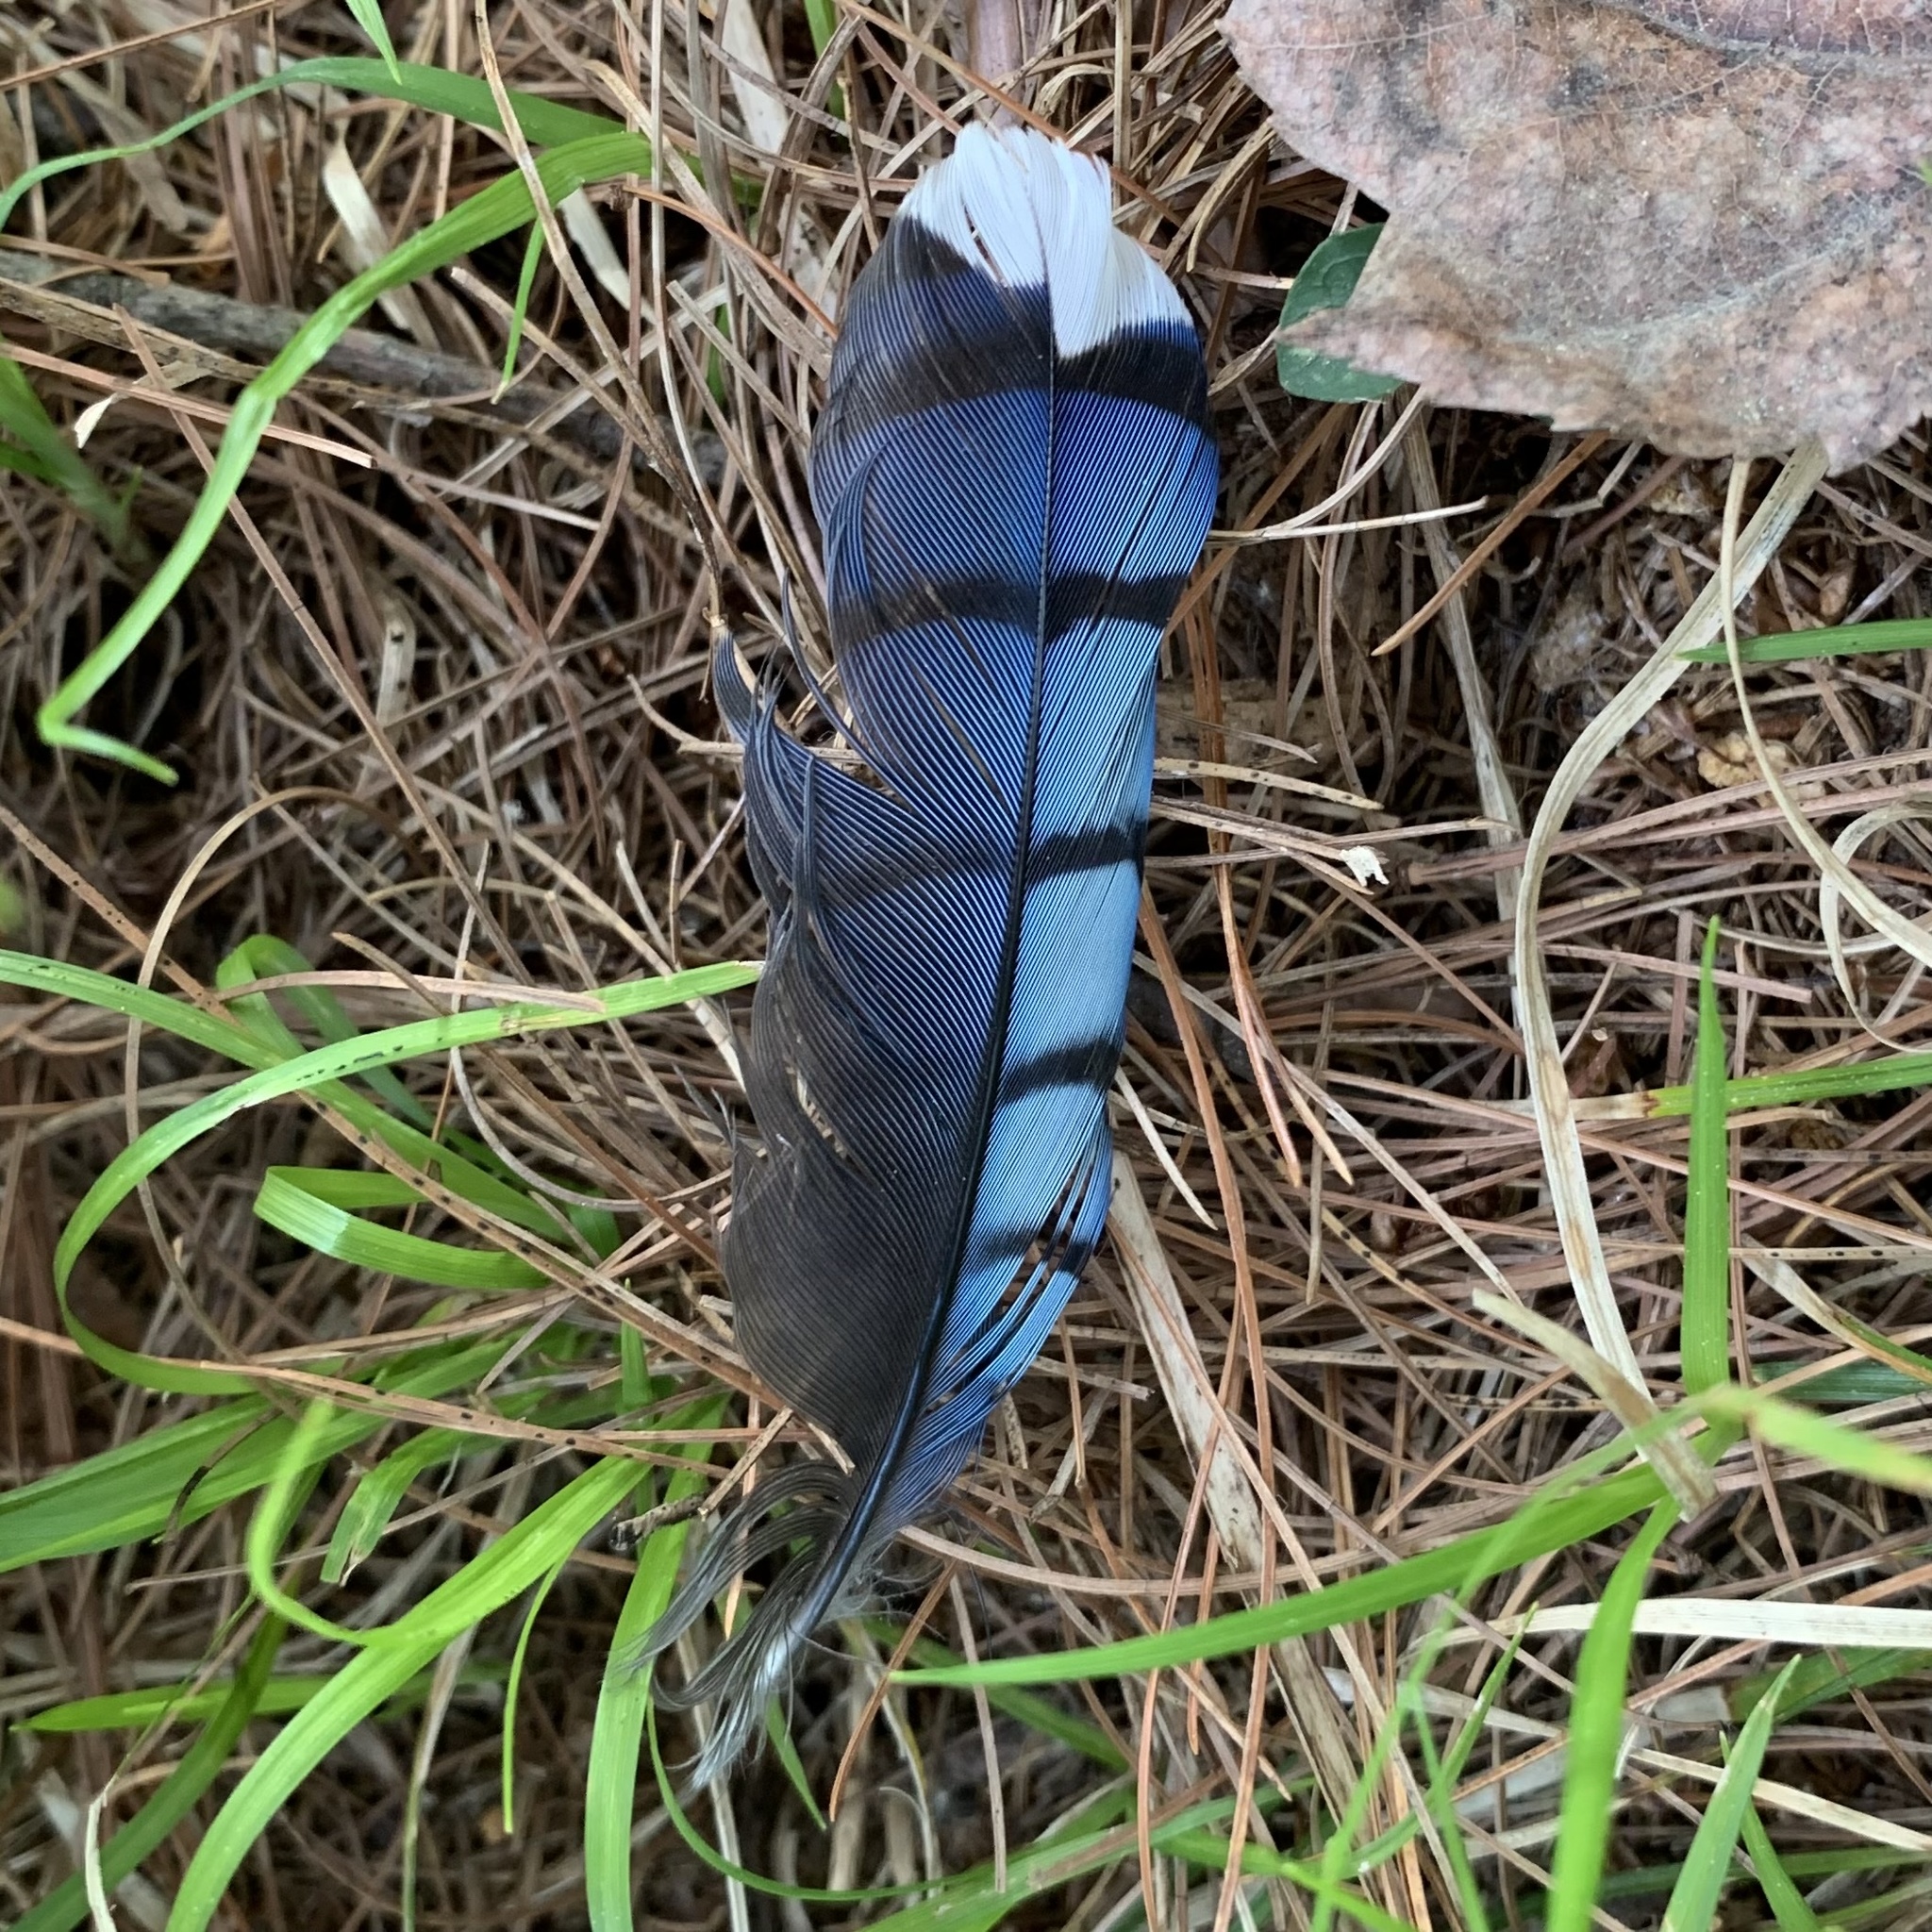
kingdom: Animalia
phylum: Chordata
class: Aves
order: Passeriformes
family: Corvidae
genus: Cyanocitta
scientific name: Cyanocitta cristata
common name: Blue jay
